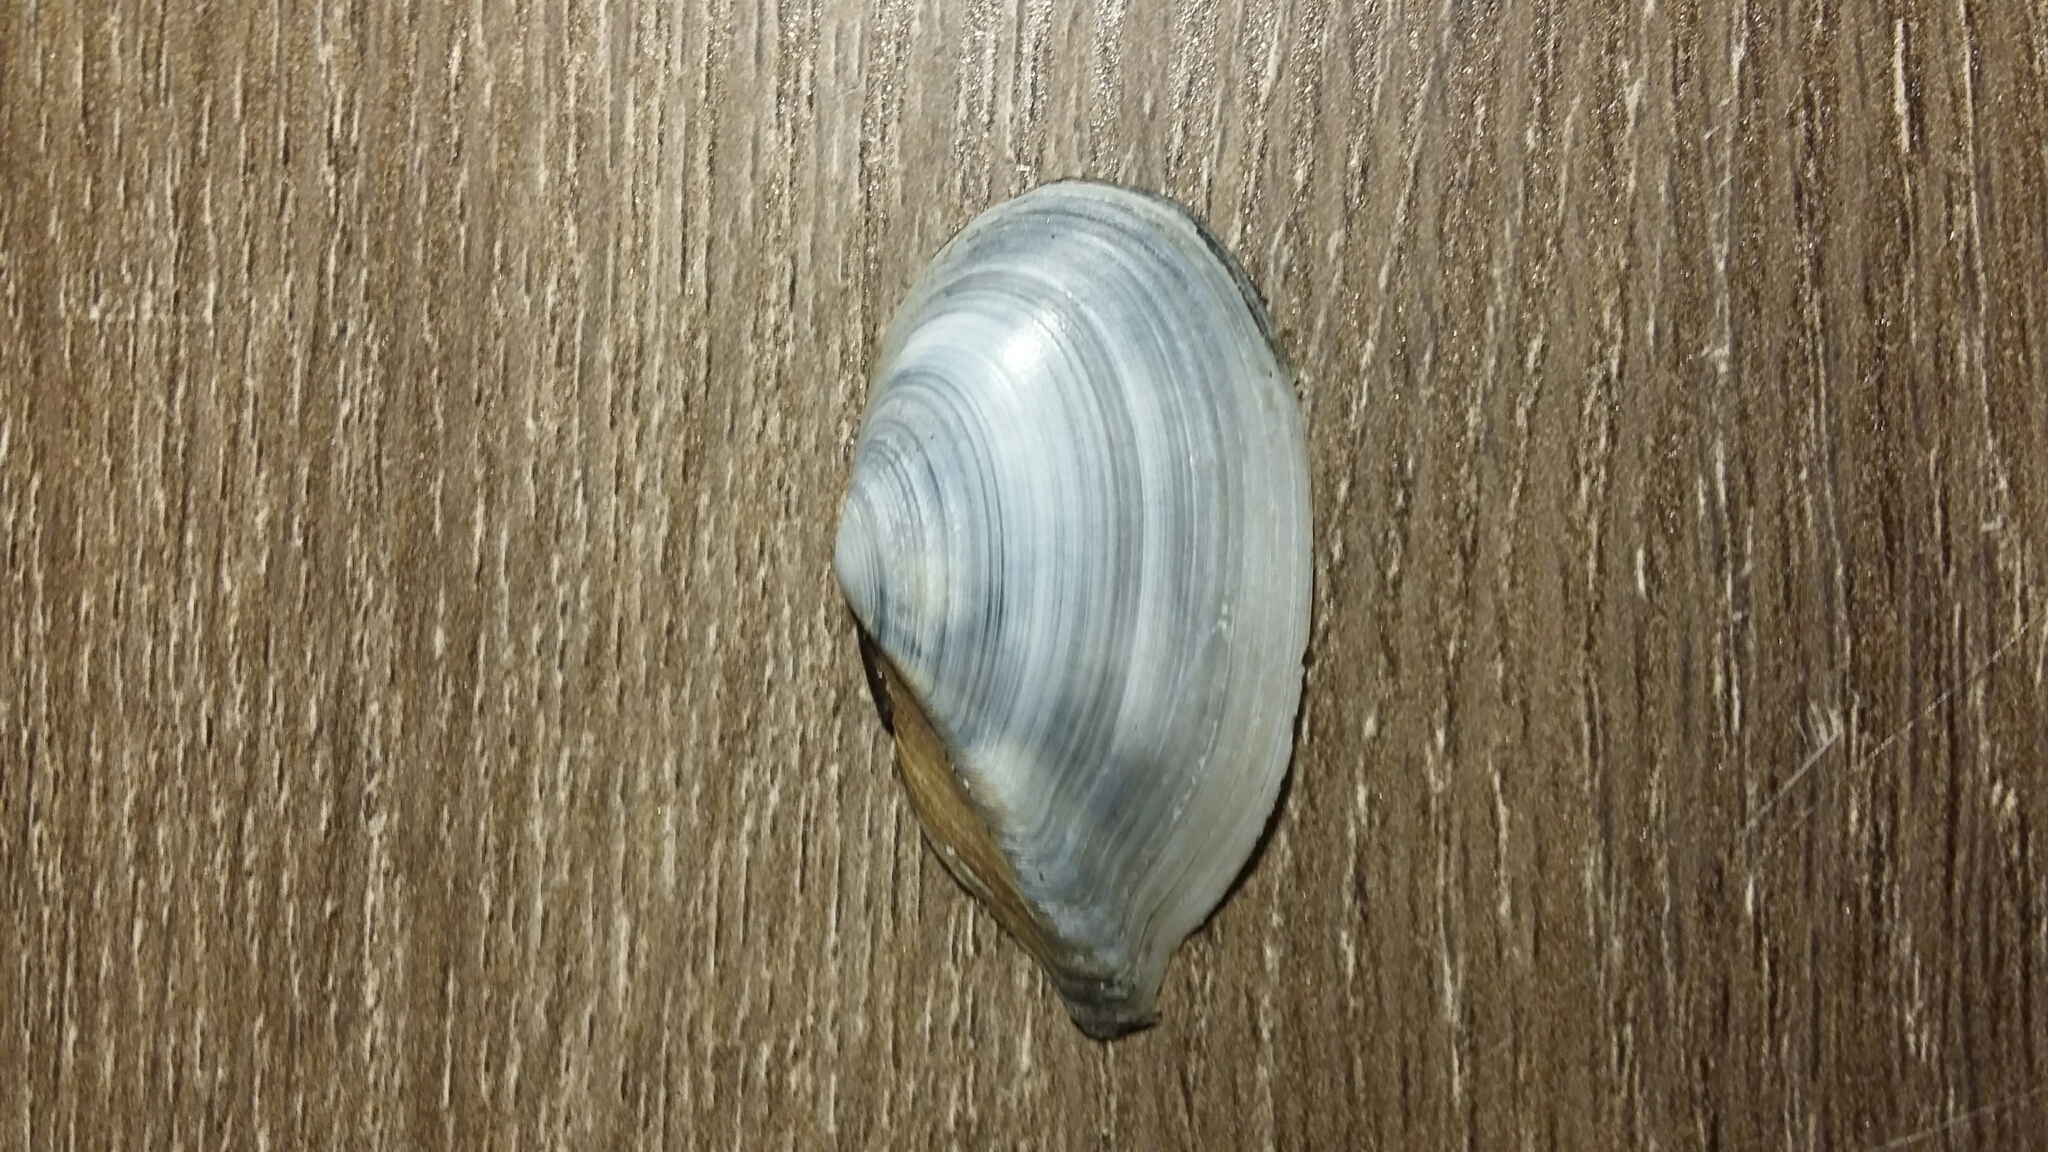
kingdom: Animalia
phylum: Mollusca
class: Bivalvia
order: Cardiida
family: Tellinidae
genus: Ardeamya
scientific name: Ardeamya spenceri
